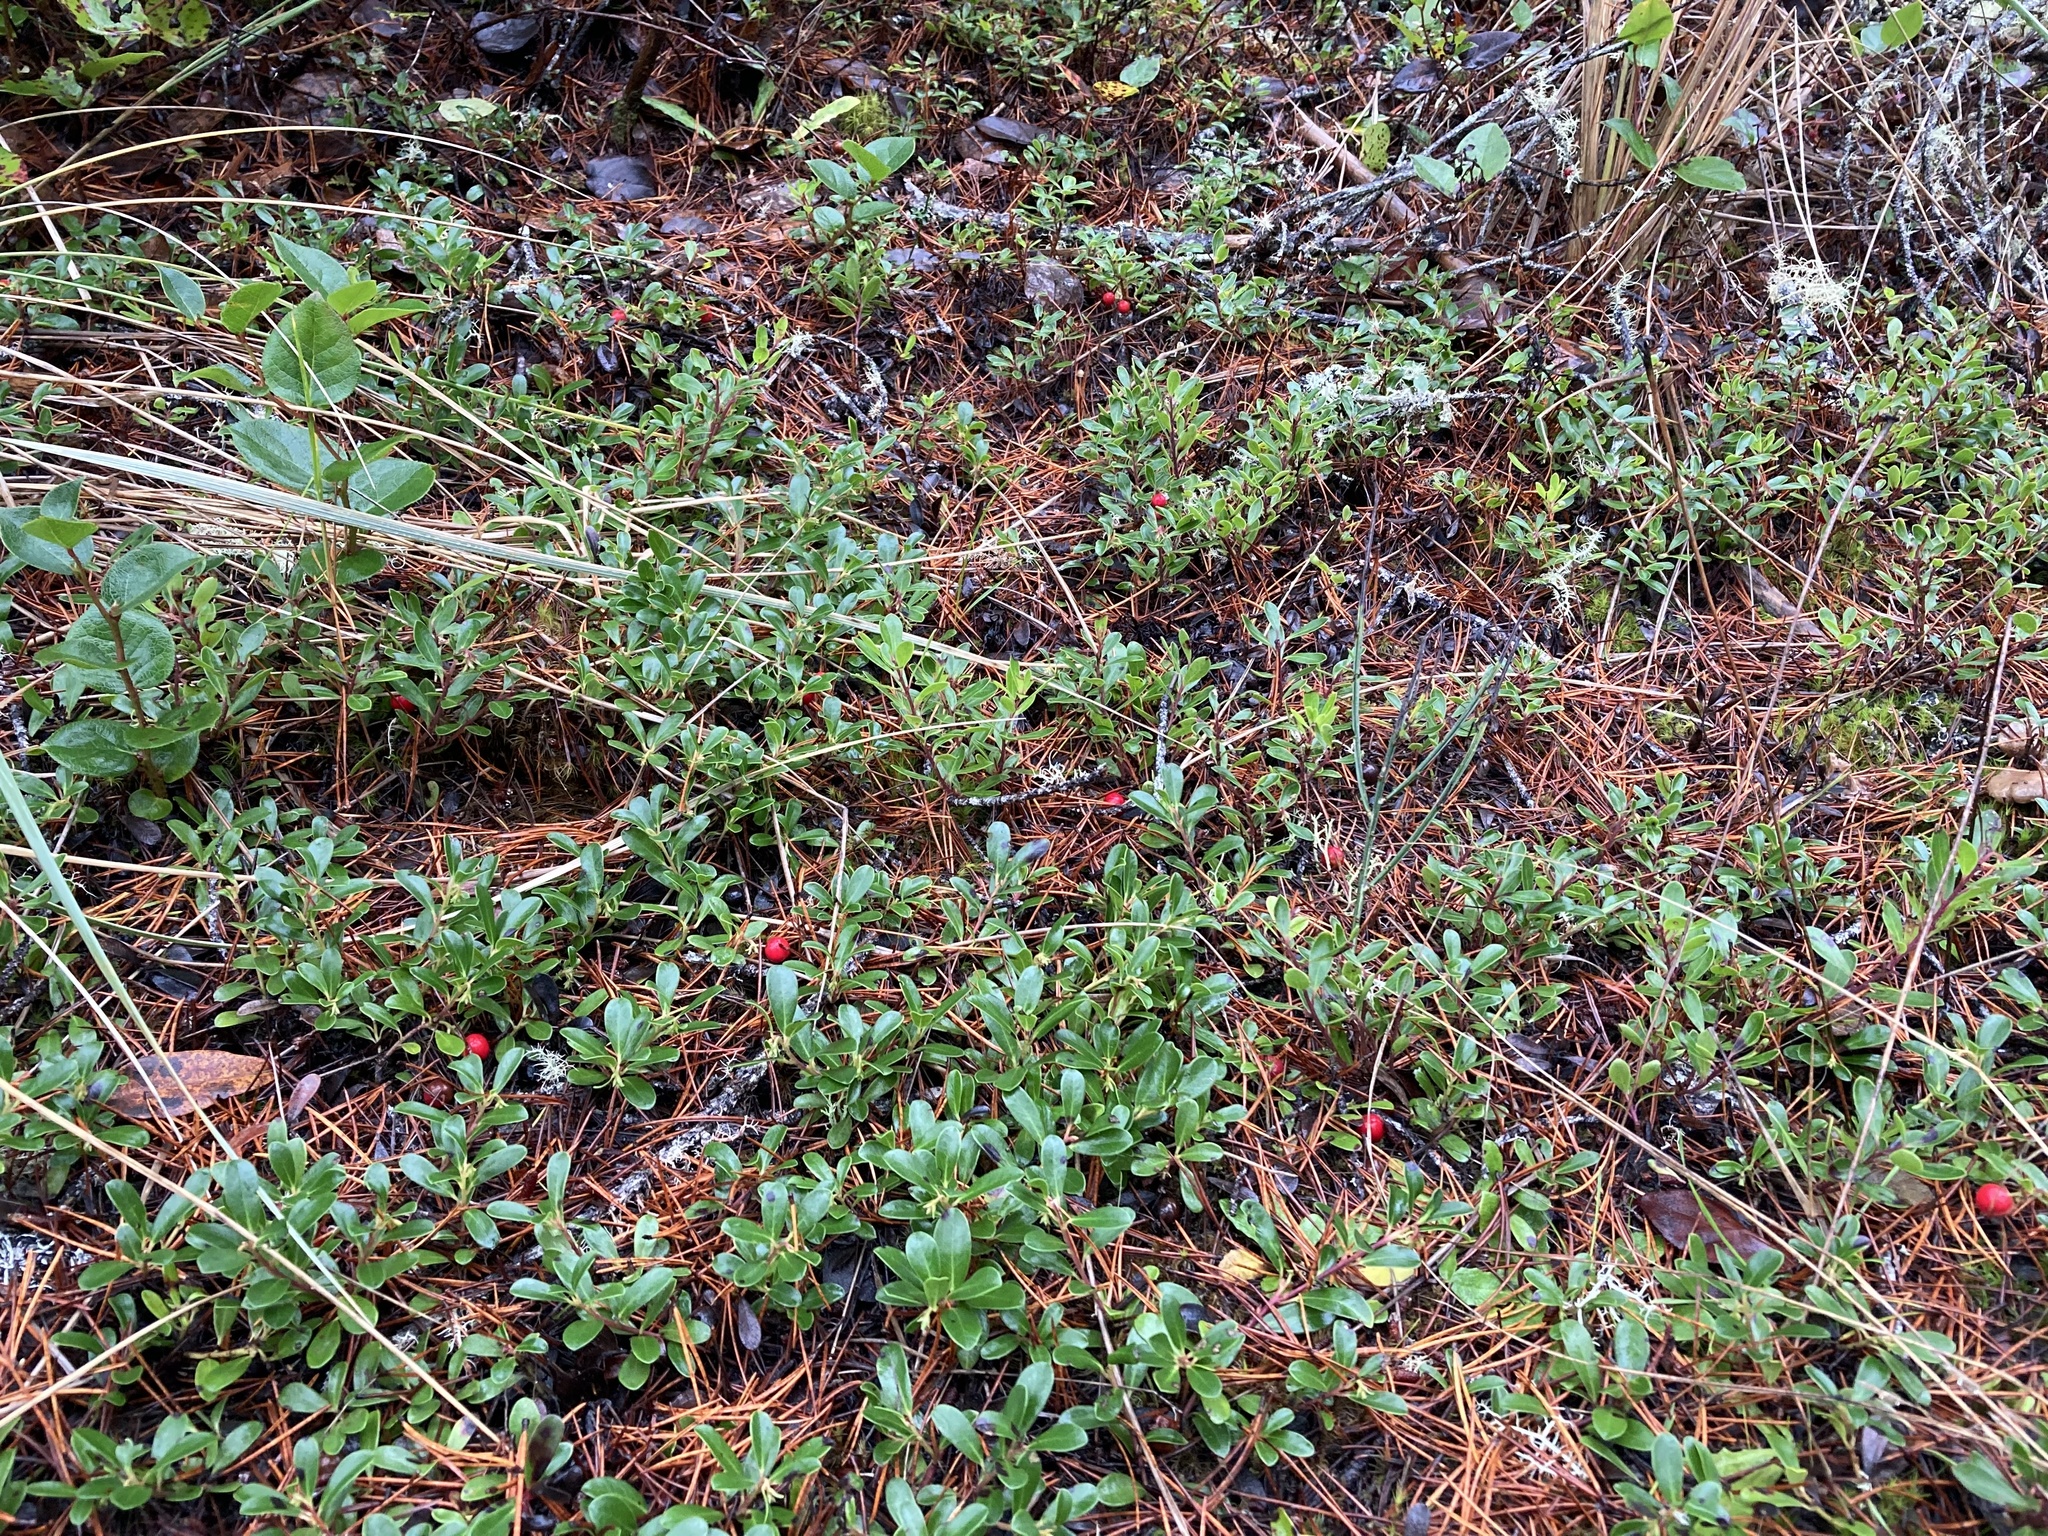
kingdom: Plantae
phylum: Tracheophyta
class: Magnoliopsida
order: Ericales
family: Ericaceae
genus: Arctostaphylos
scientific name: Arctostaphylos uva-ursi
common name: Bearberry
